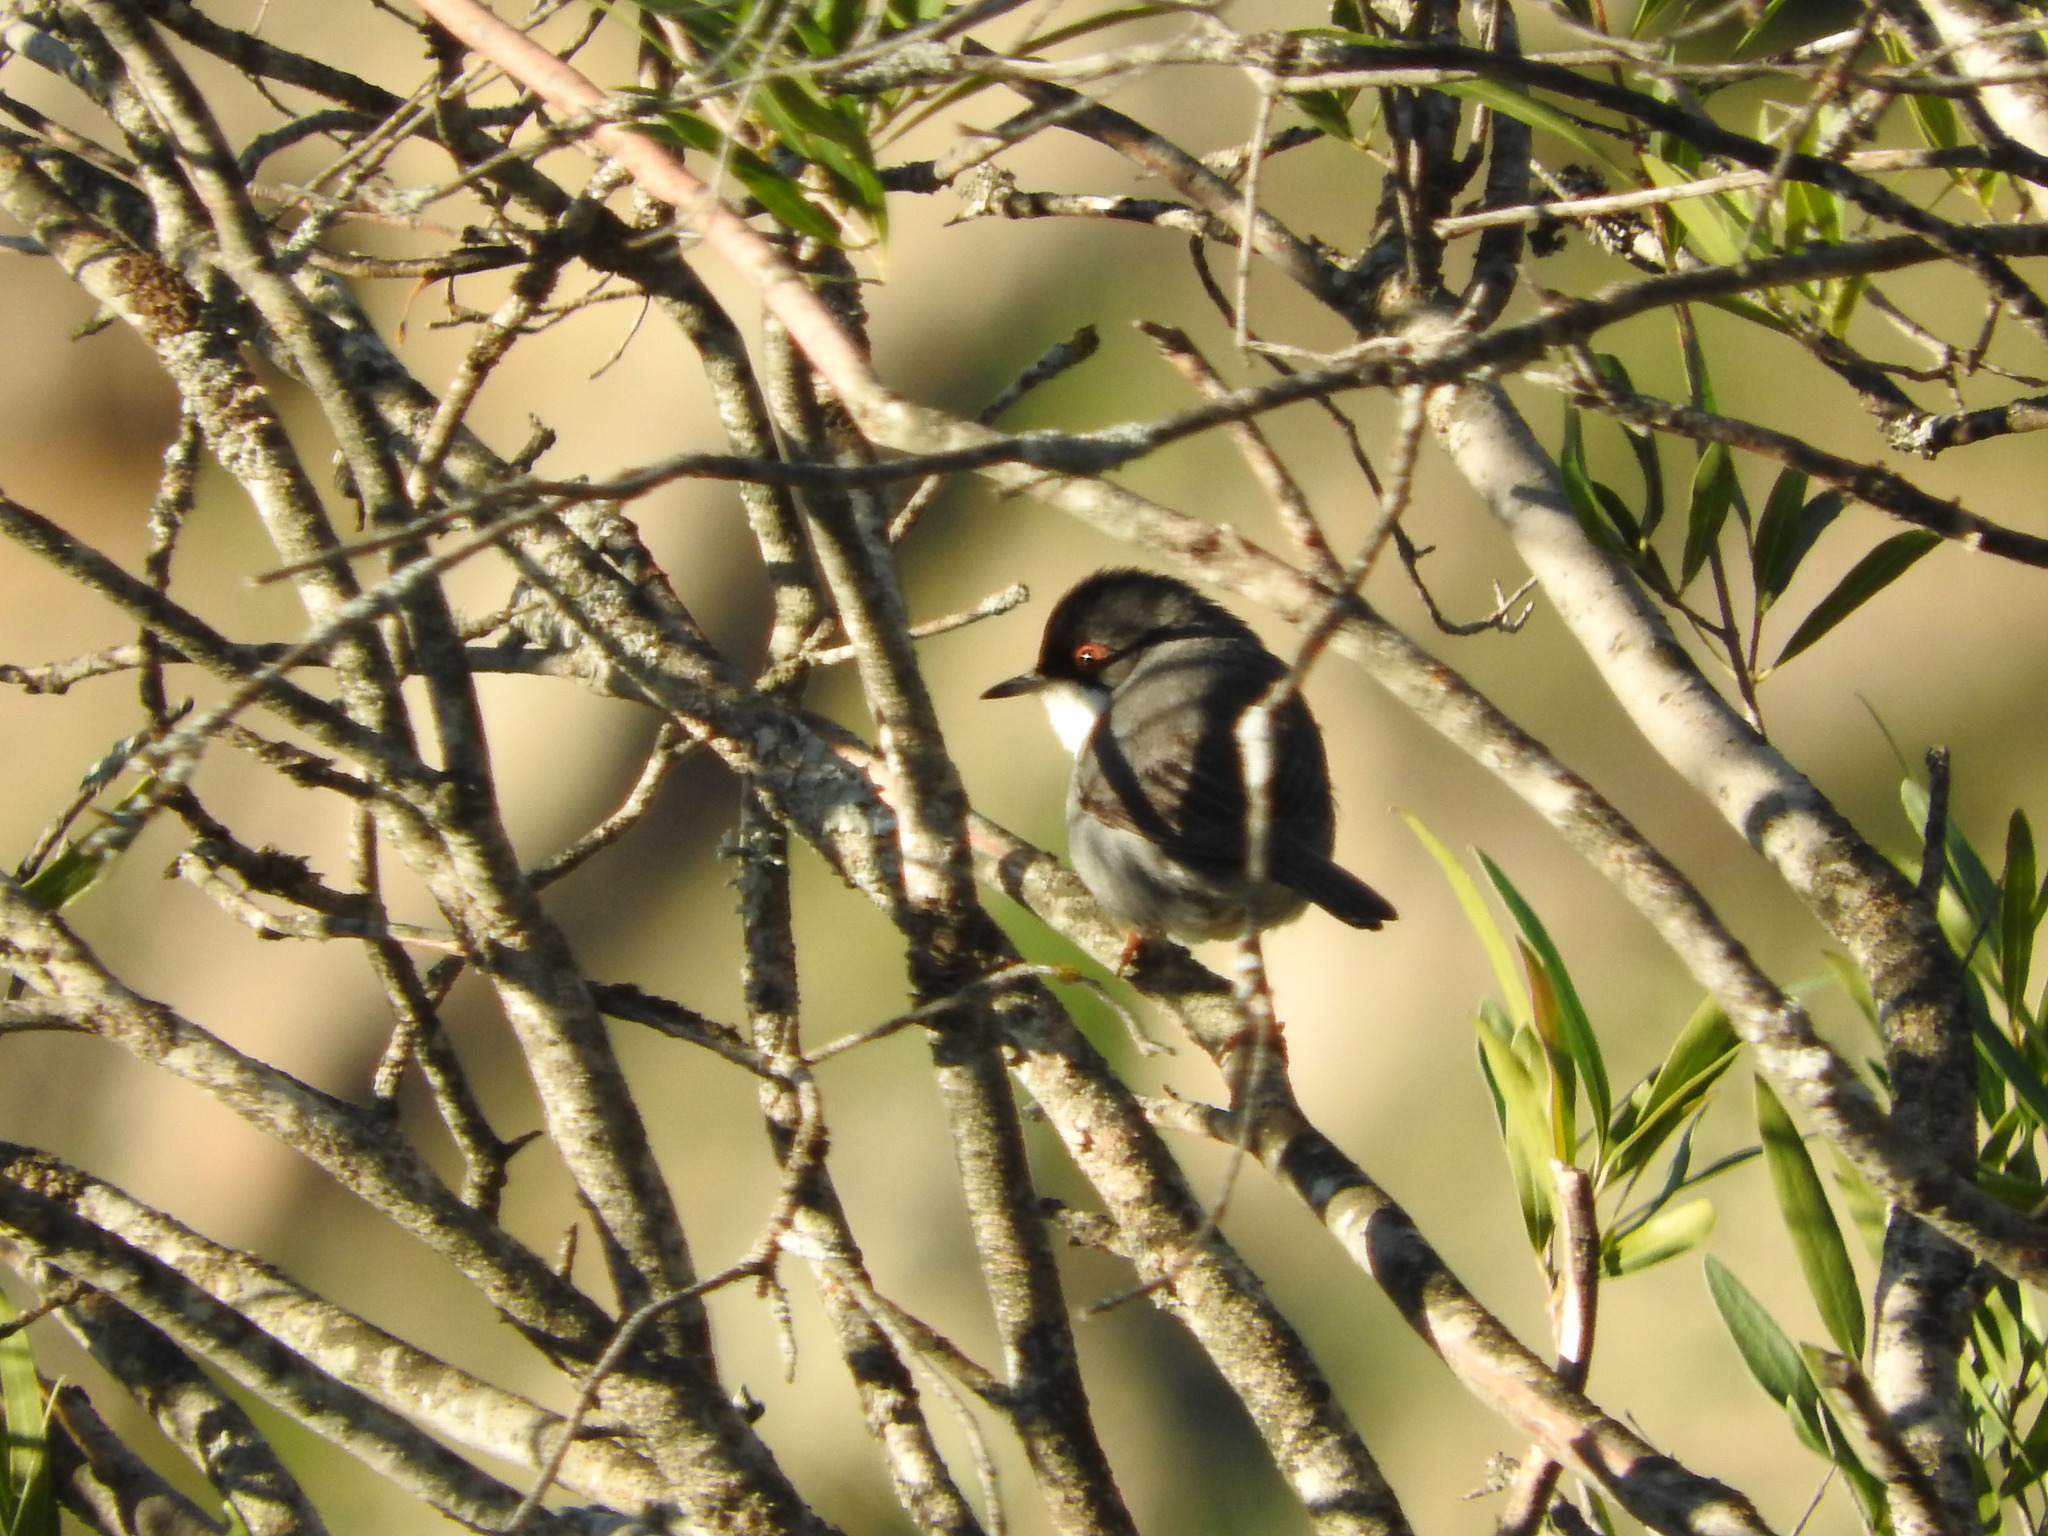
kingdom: Animalia
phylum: Chordata
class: Aves
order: Passeriformes
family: Sylviidae
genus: Curruca
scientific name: Curruca melanocephala
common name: Sardinian warbler
